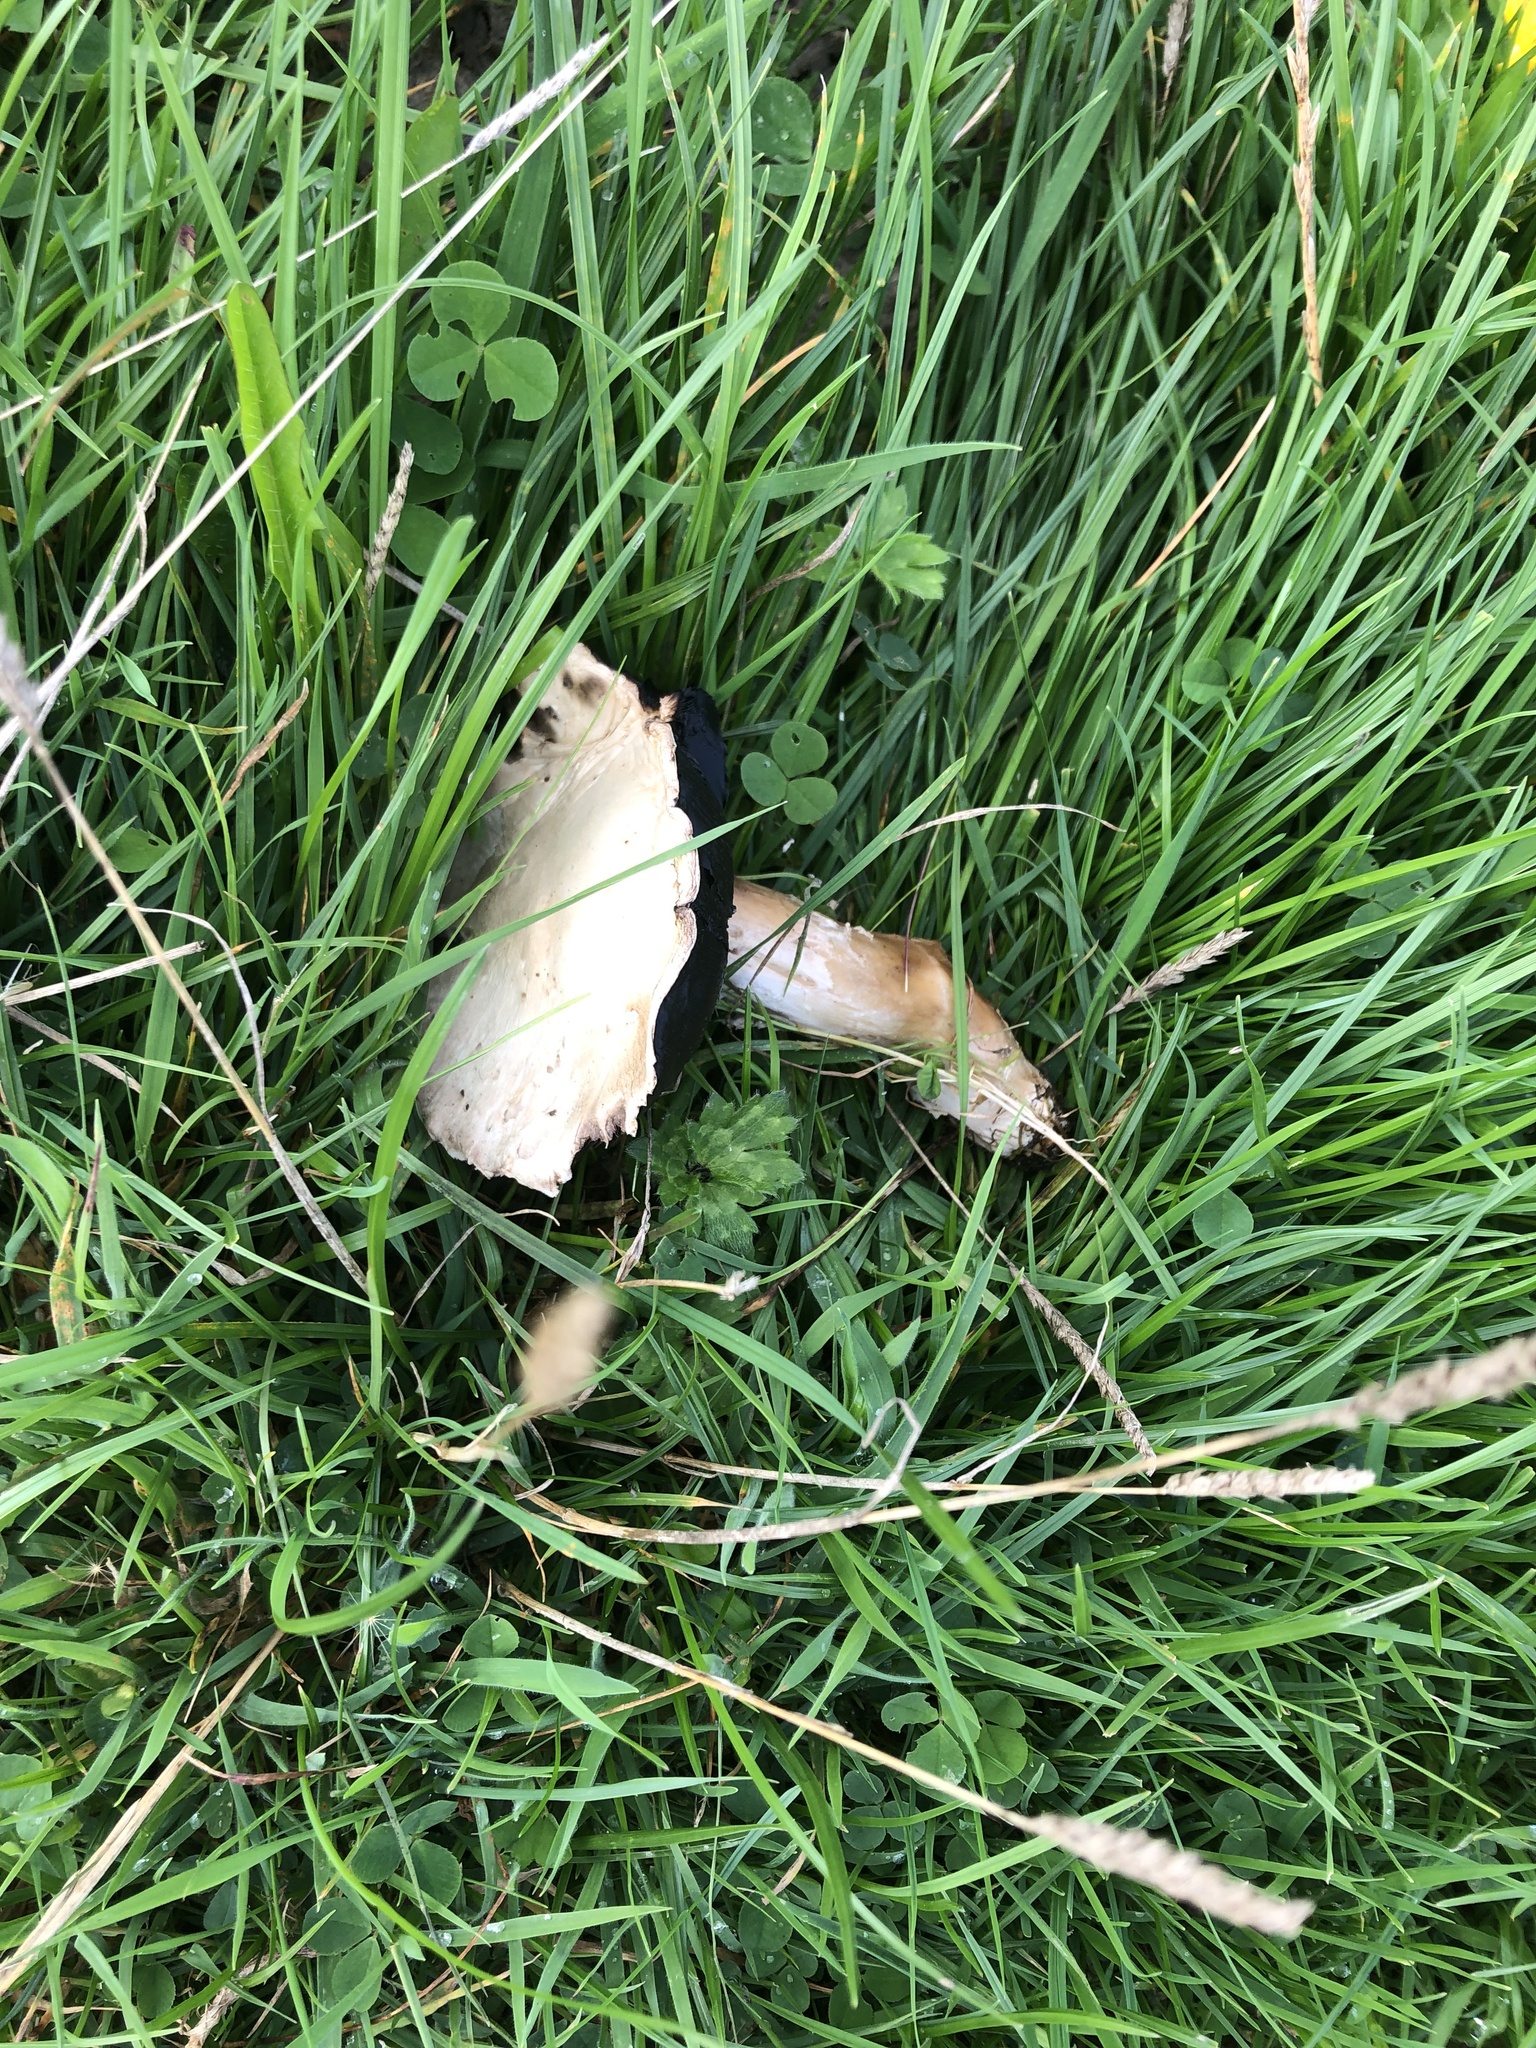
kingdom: Fungi
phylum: Basidiomycota
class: Agaricomycetes
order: Agaricales
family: Agaricaceae
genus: Agaricus
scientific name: Agaricus arvensis
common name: Horse mushroom
